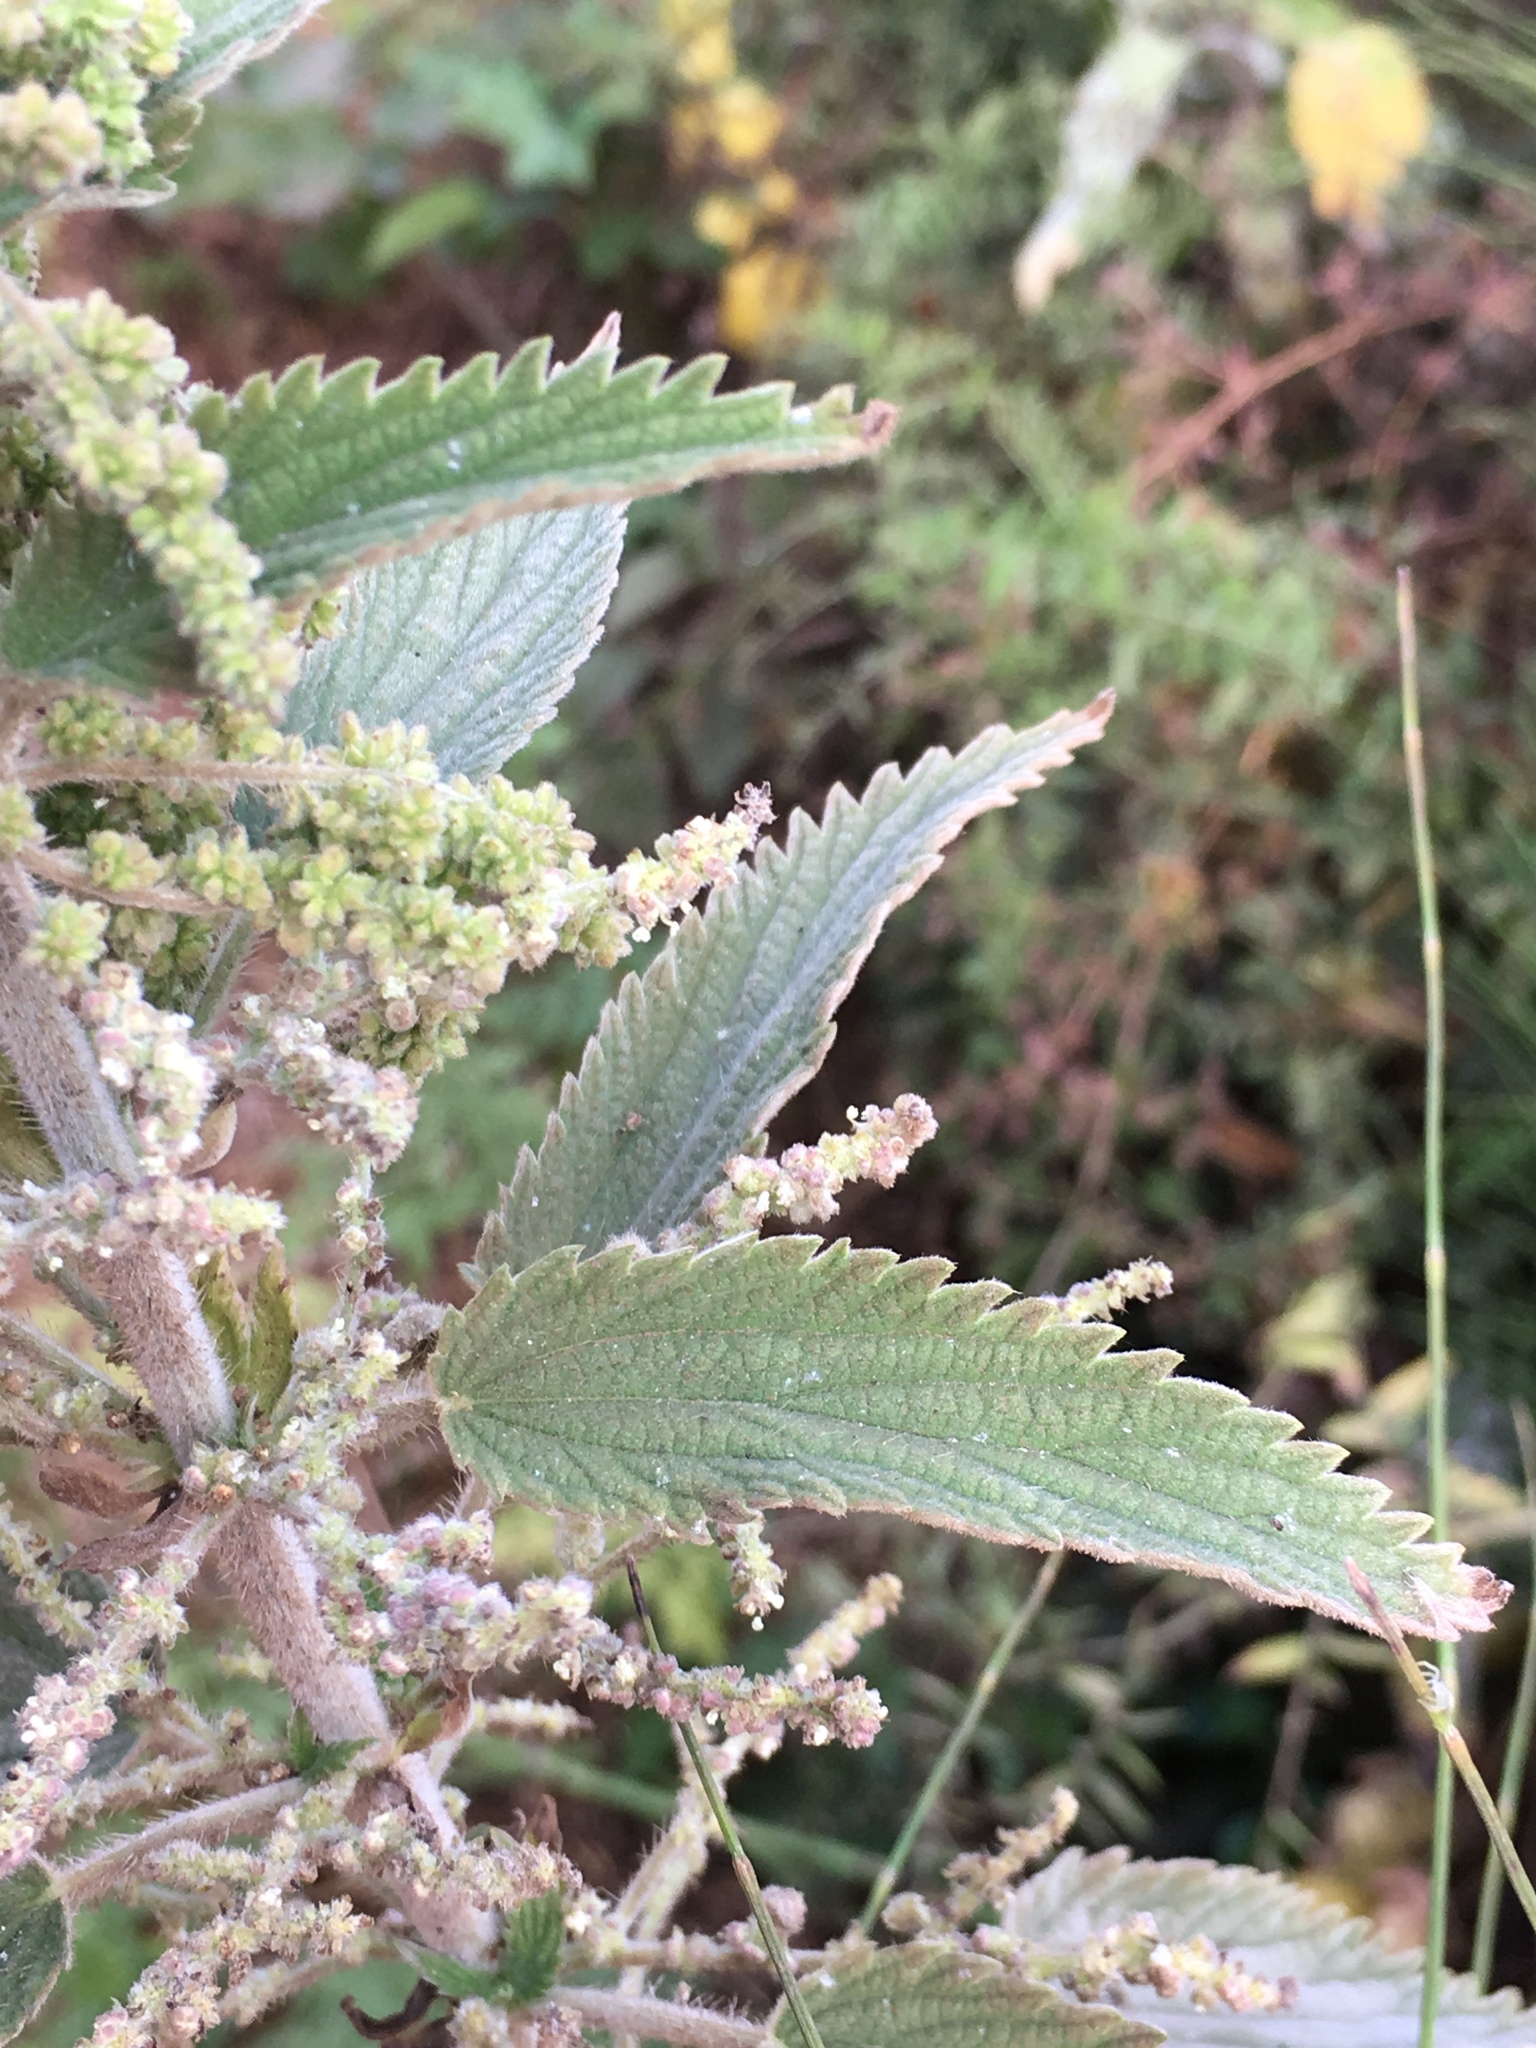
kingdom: Plantae
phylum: Tracheophyta
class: Magnoliopsida
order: Rosales
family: Urticaceae
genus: Urtica
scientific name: Urtica dioica
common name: Common nettle
